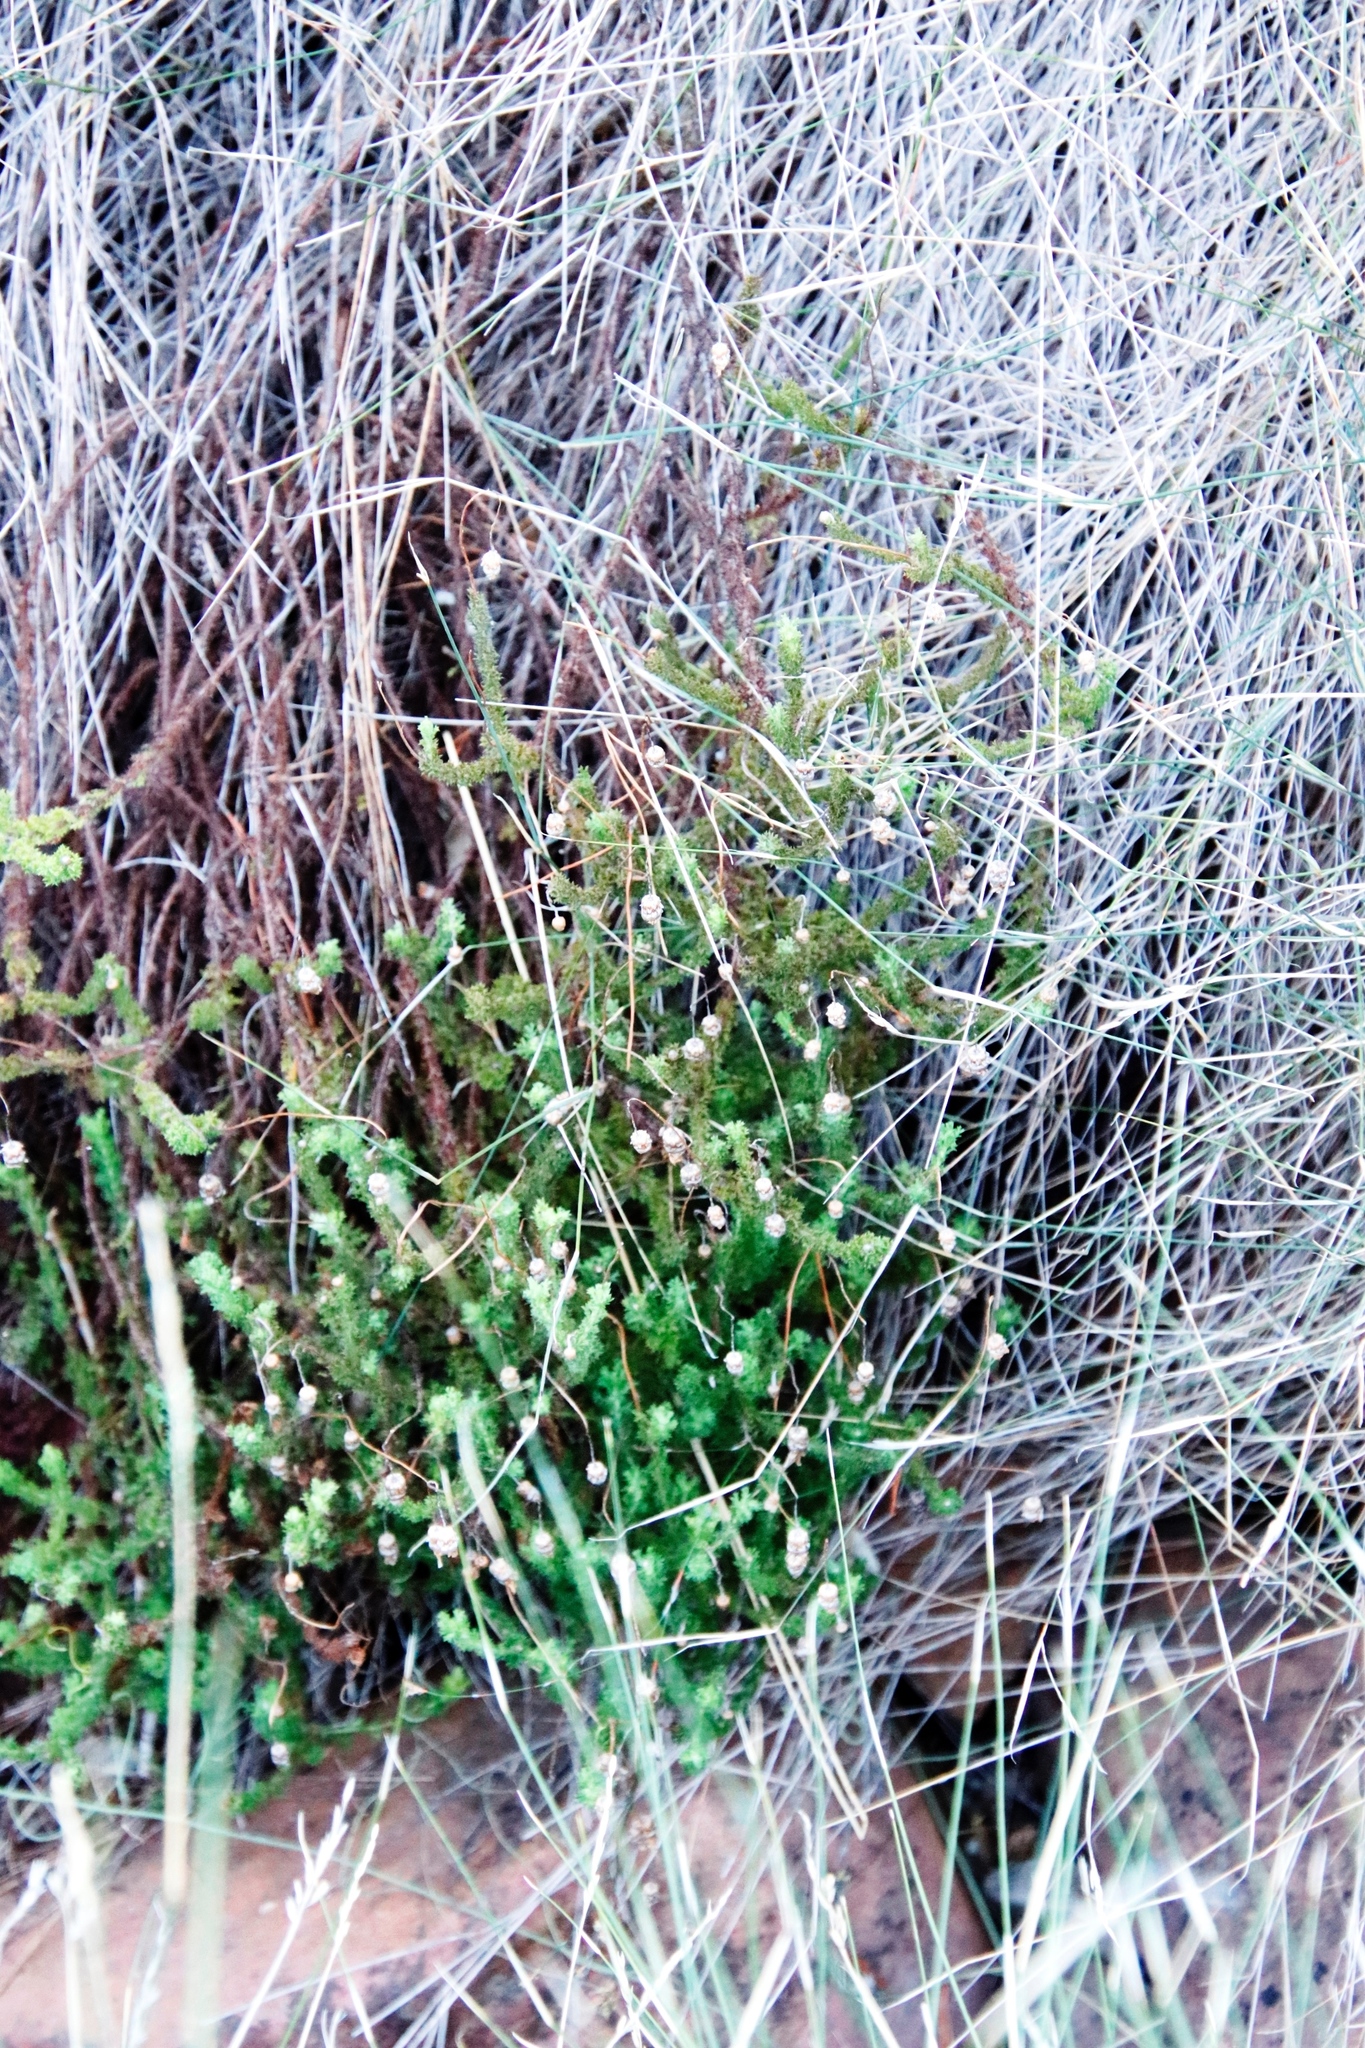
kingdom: Plantae
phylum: Tracheophyta
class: Magnoliopsida
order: Asterales
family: Asteraceae
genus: Ursinia
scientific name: Ursinia dentata
